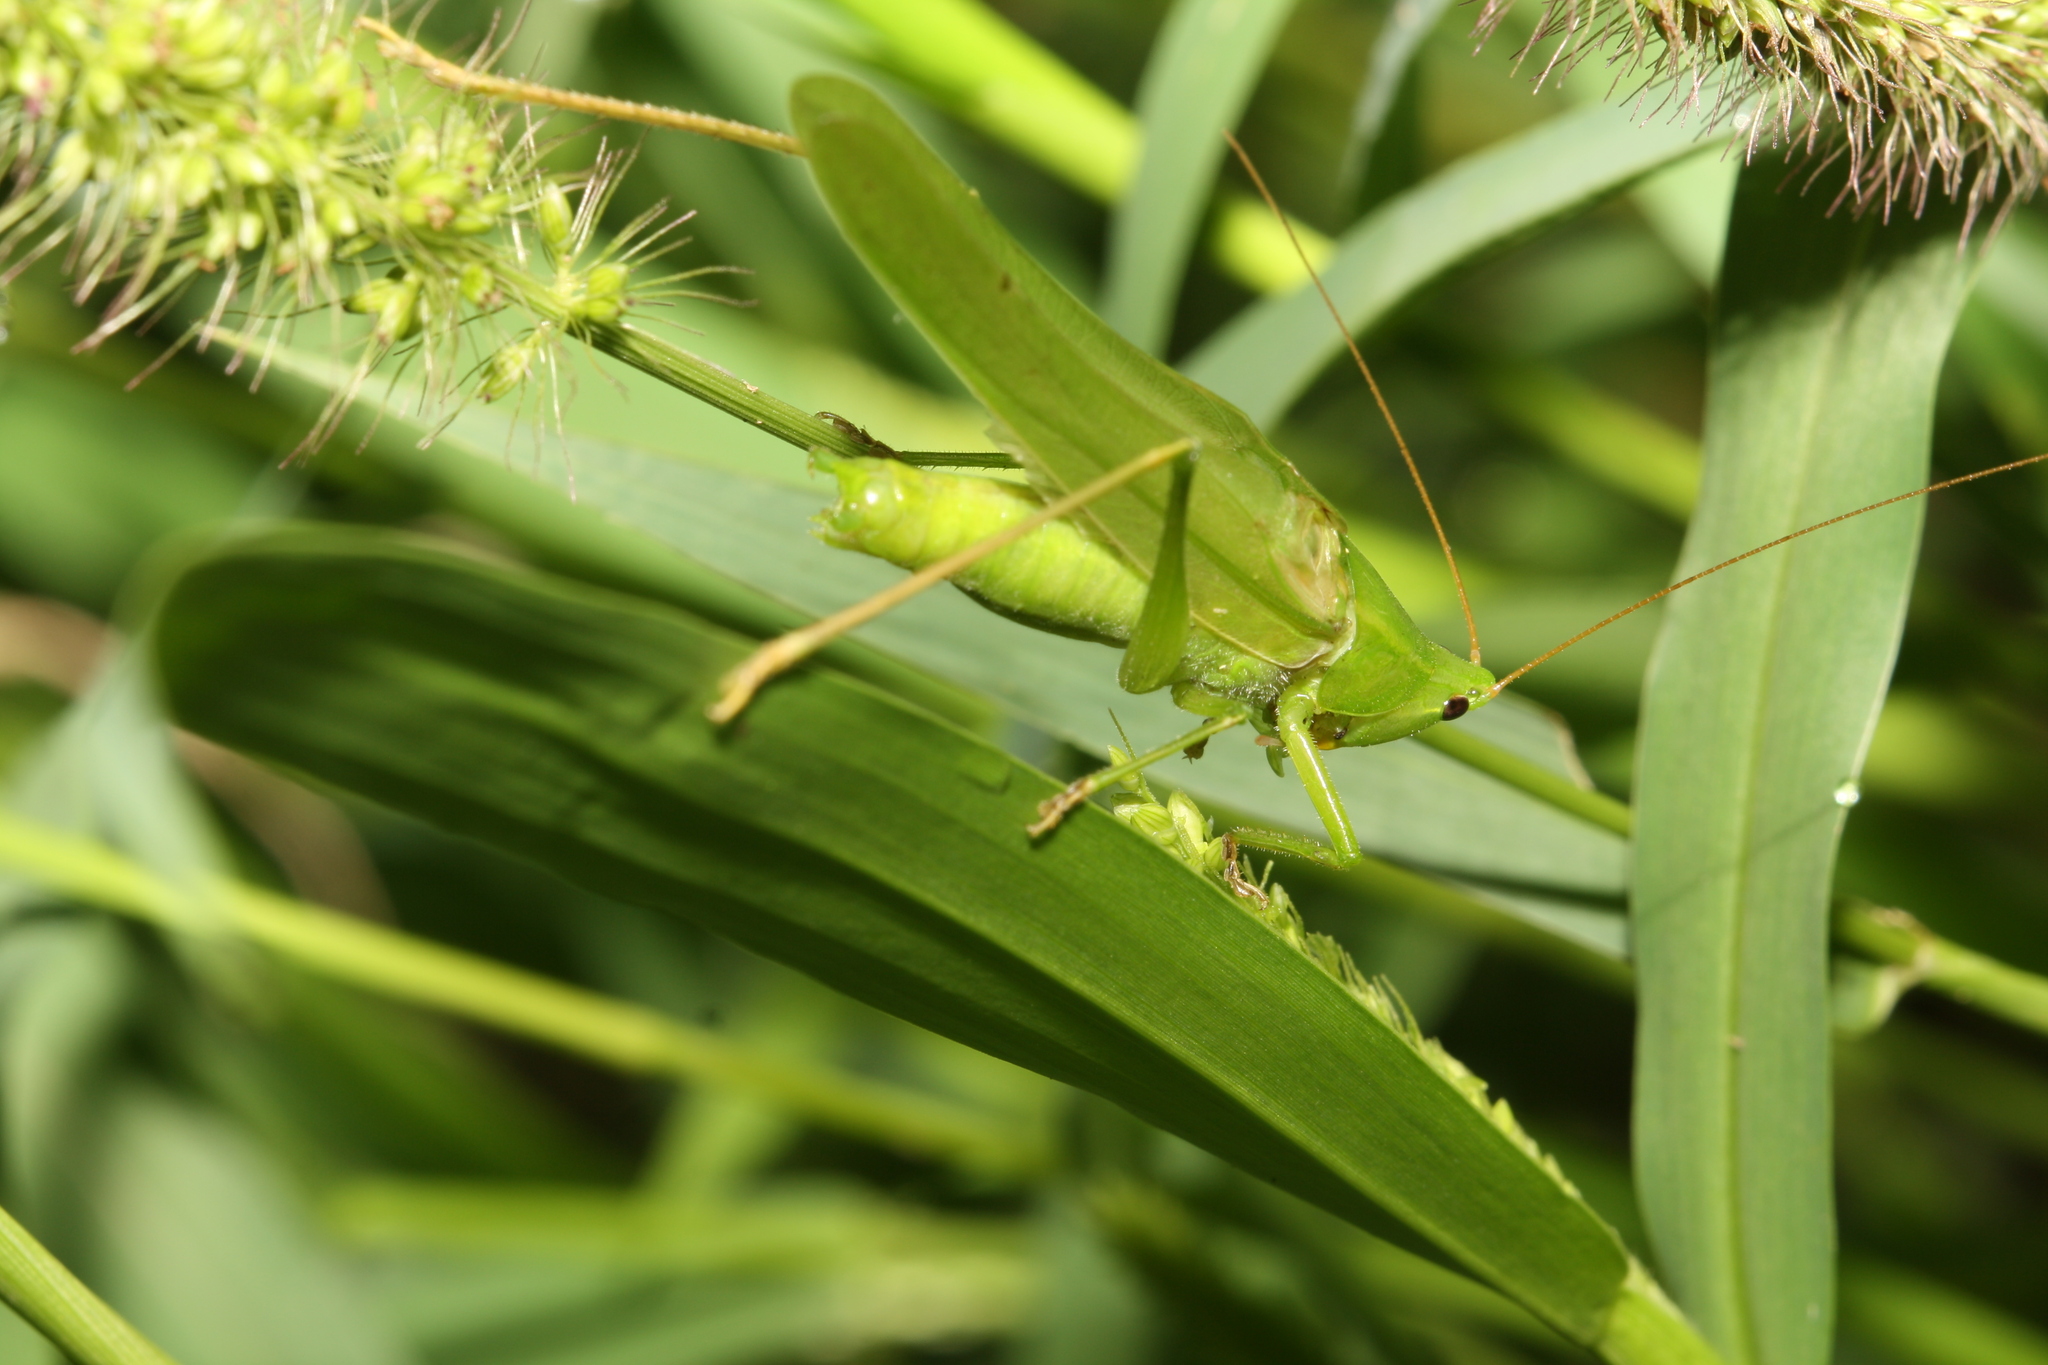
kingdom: Animalia
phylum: Arthropoda
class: Insecta
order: Orthoptera
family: Tettigoniidae
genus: Ruspolia
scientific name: Ruspolia nitidula
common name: Large conehead
